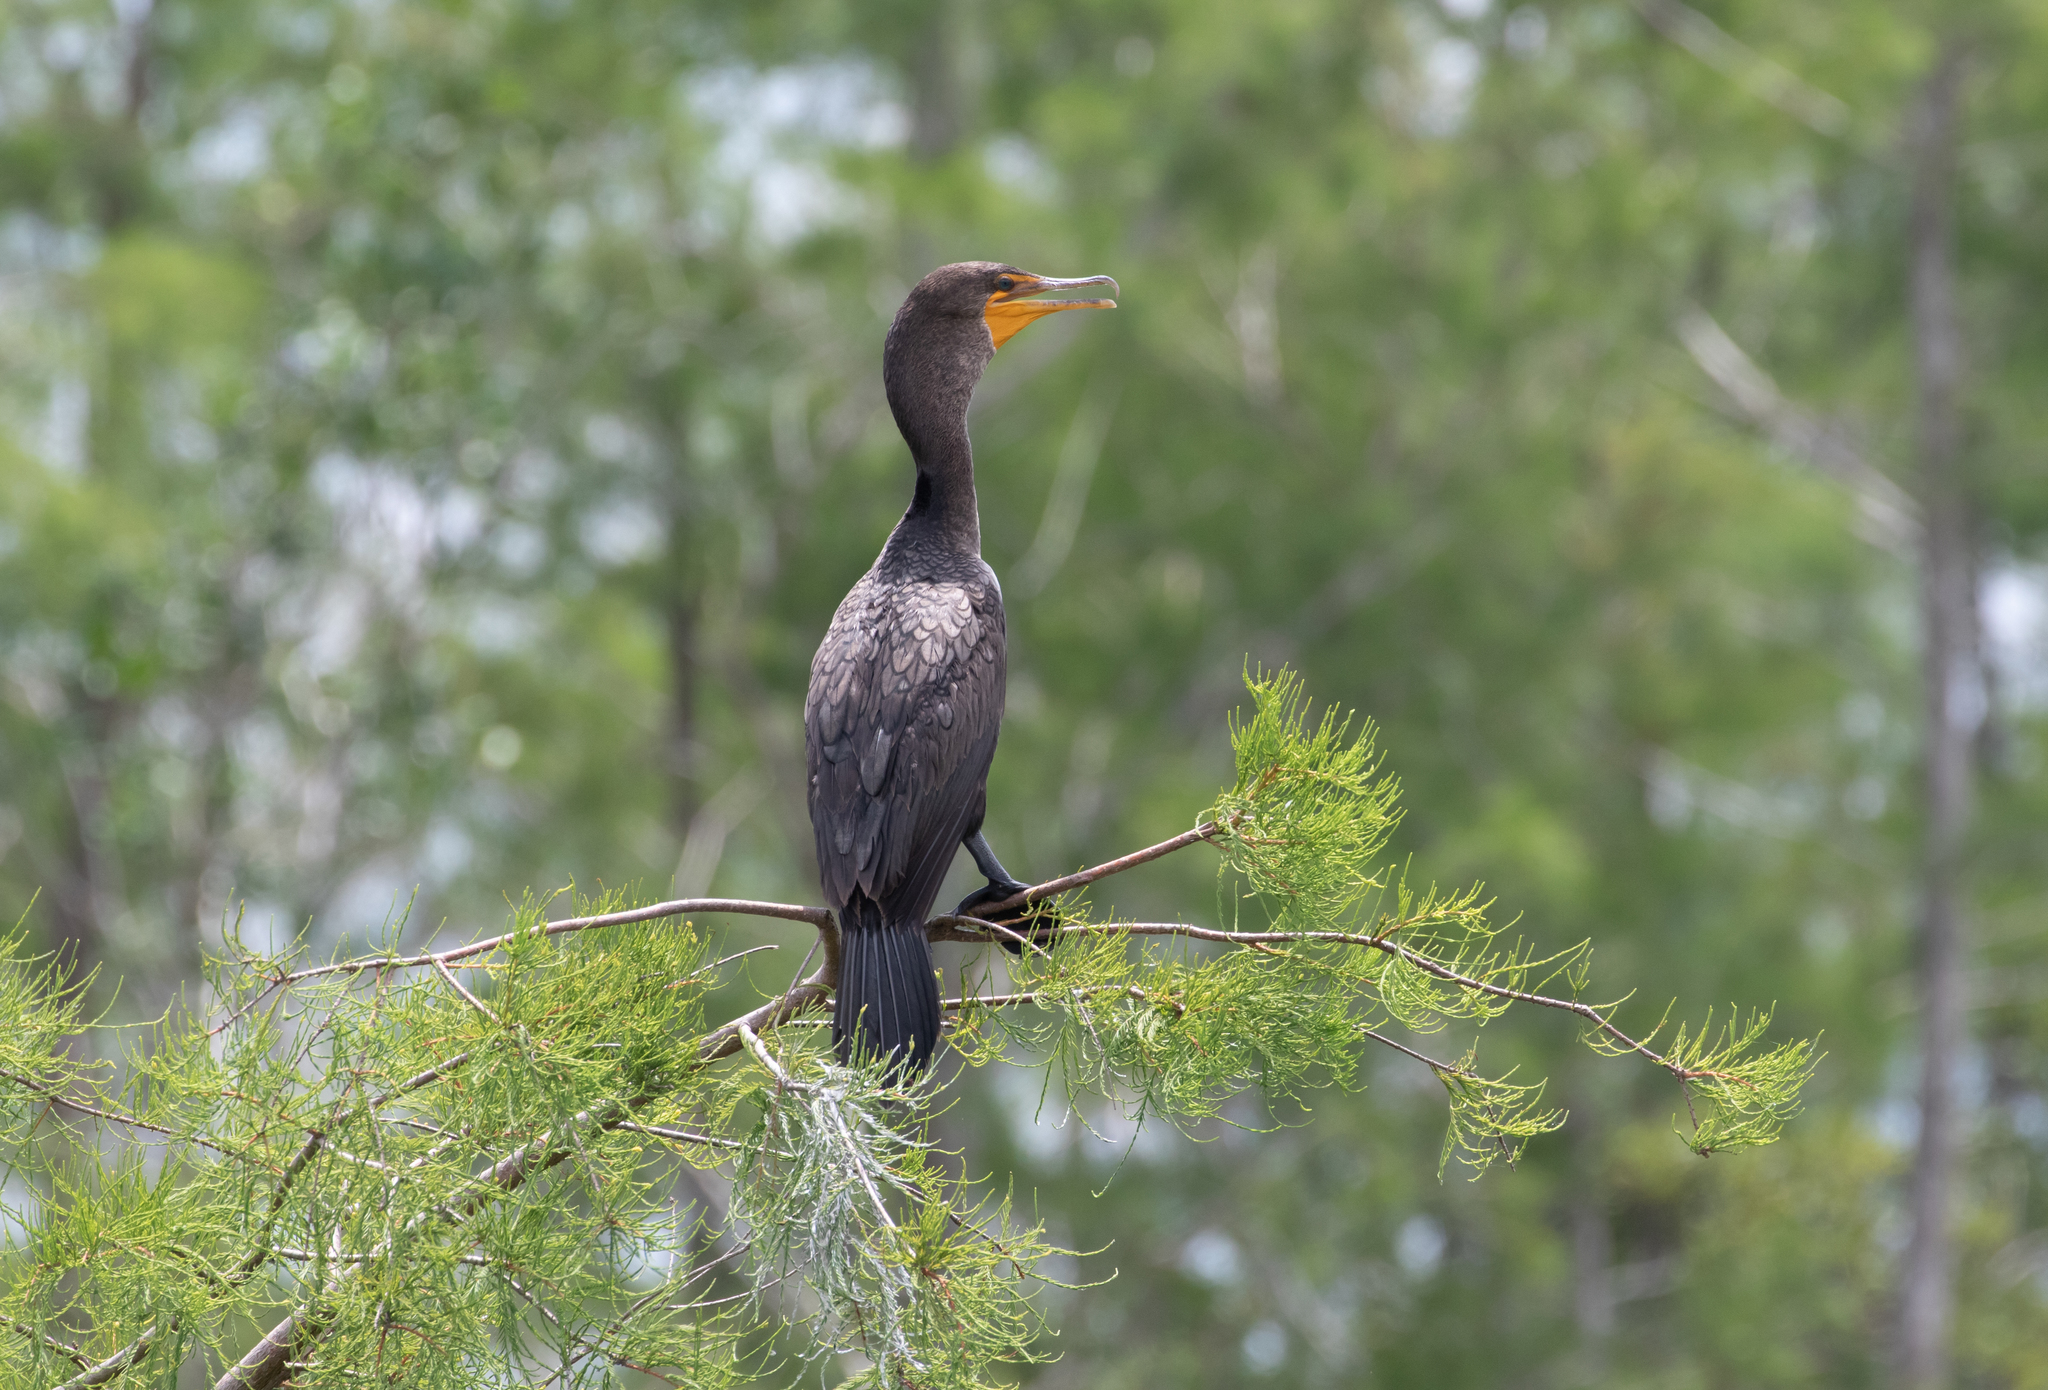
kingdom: Animalia
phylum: Chordata
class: Aves
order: Suliformes
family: Phalacrocoracidae
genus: Phalacrocorax
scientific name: Phalacrocorax auritus
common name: Double-crested cormorant
